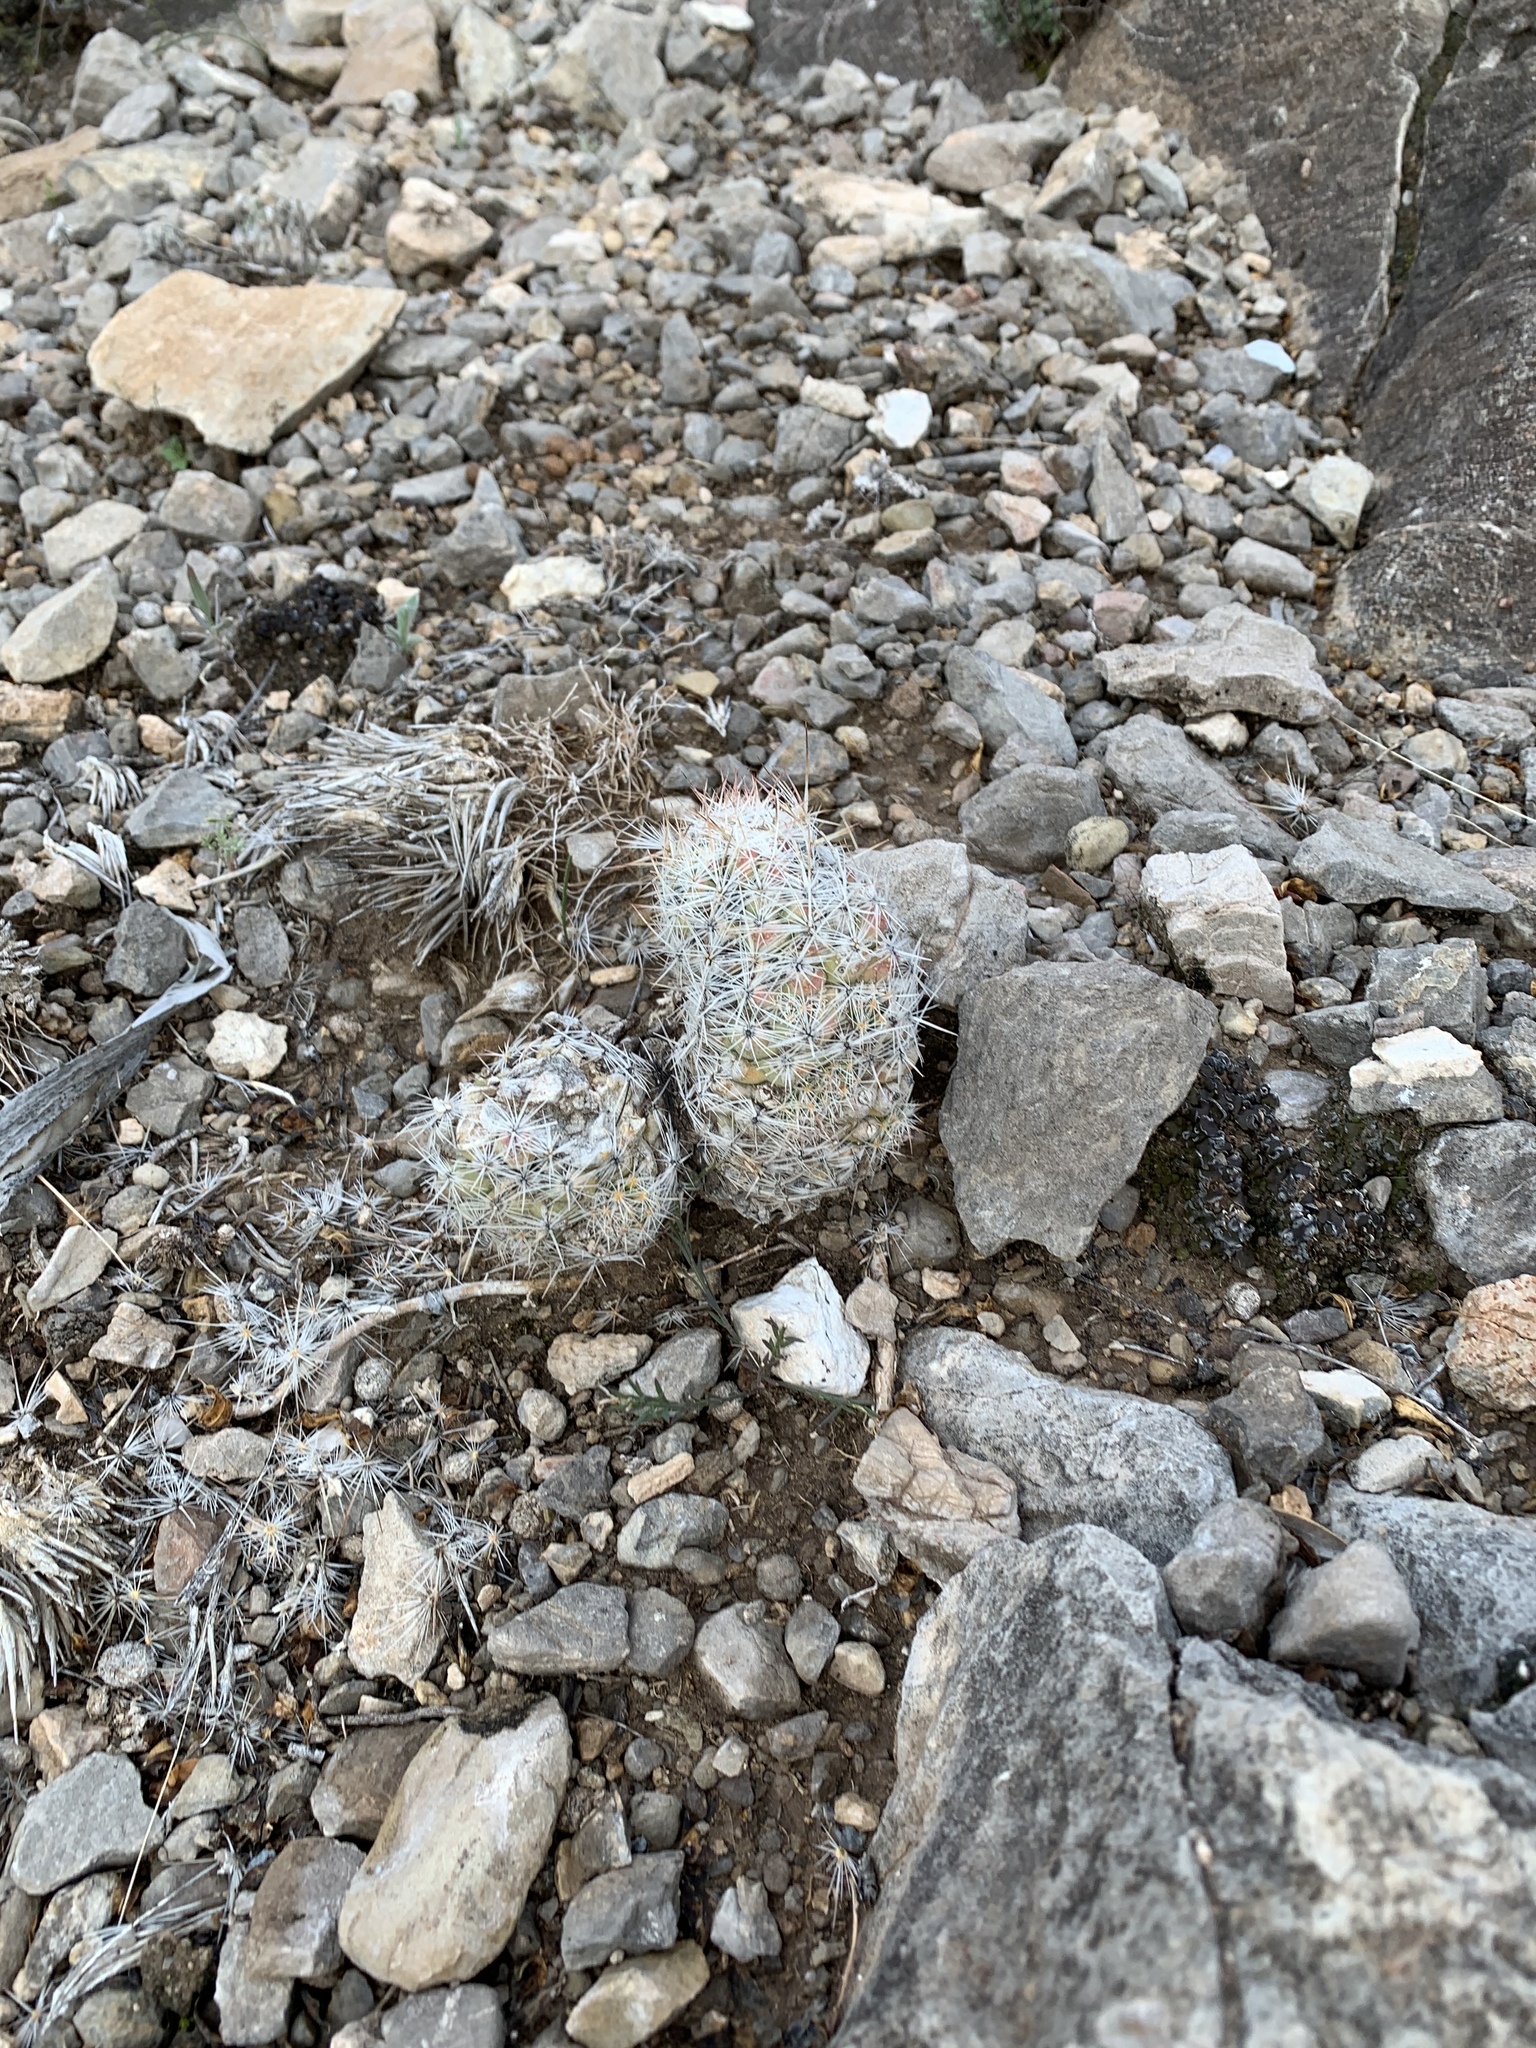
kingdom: Plantae
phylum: Tracheophyta
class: Magnoliopsida
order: Caryophyllales
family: Cactaceae
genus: Pelecyphora
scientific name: Pelecyphora tuberculosa
